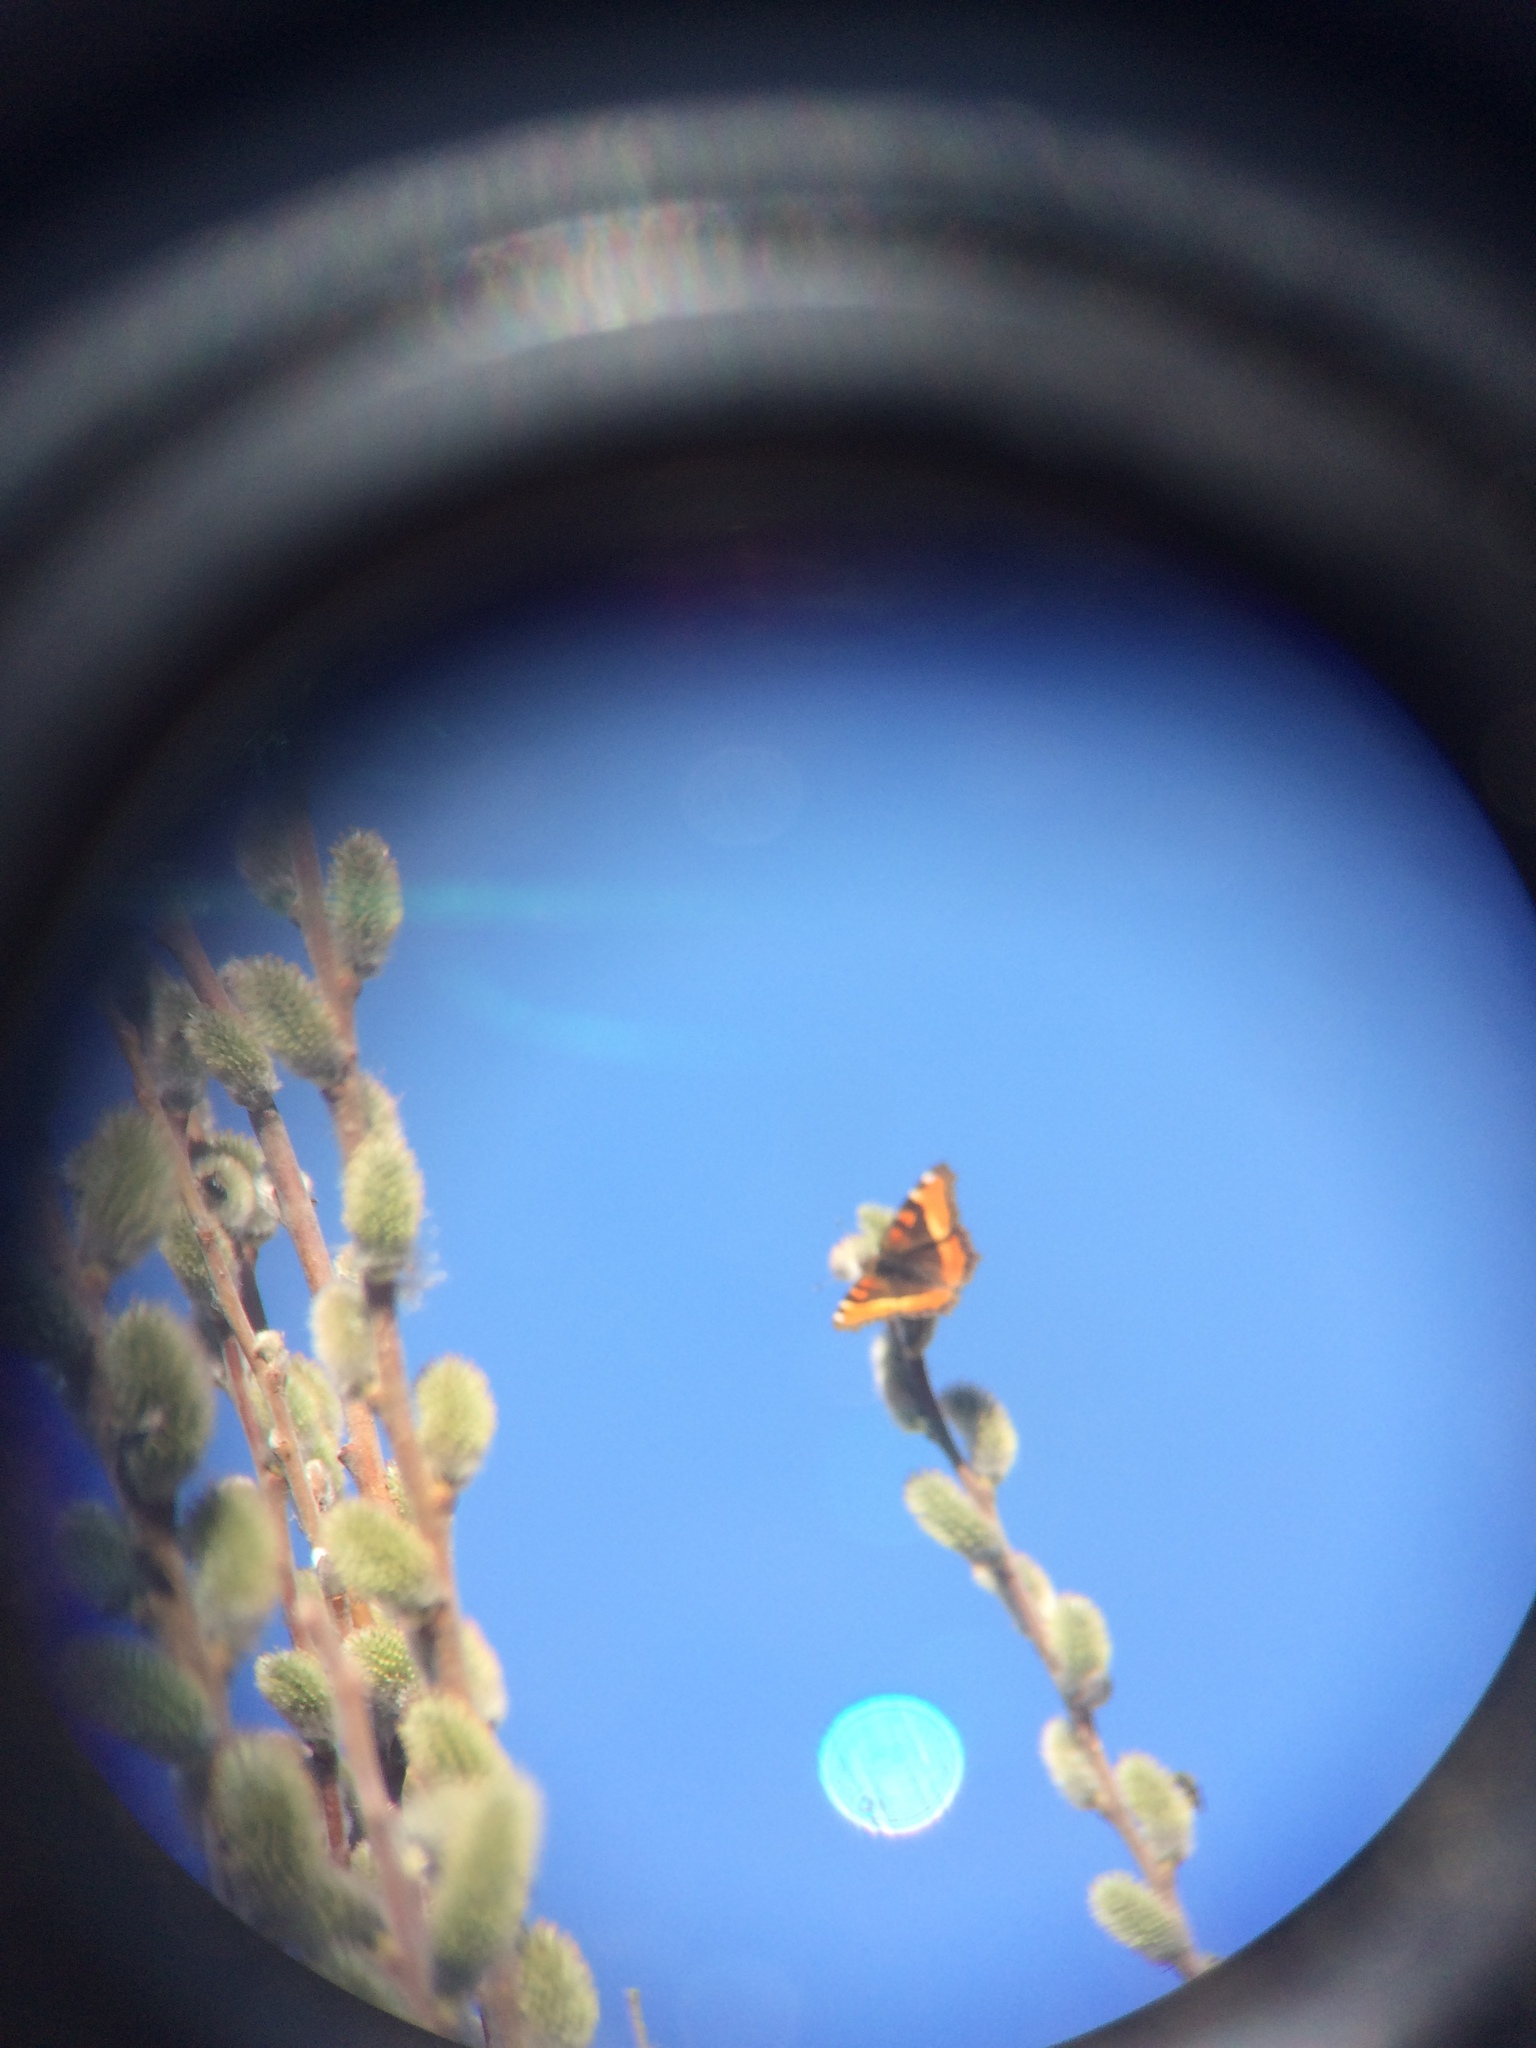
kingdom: Animalia
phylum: Arthropoda
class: Insecta
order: Lepidoptera
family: Nymphalidae
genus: Aglais
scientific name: Aglais milberti
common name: Milbert's tortoiseshell
